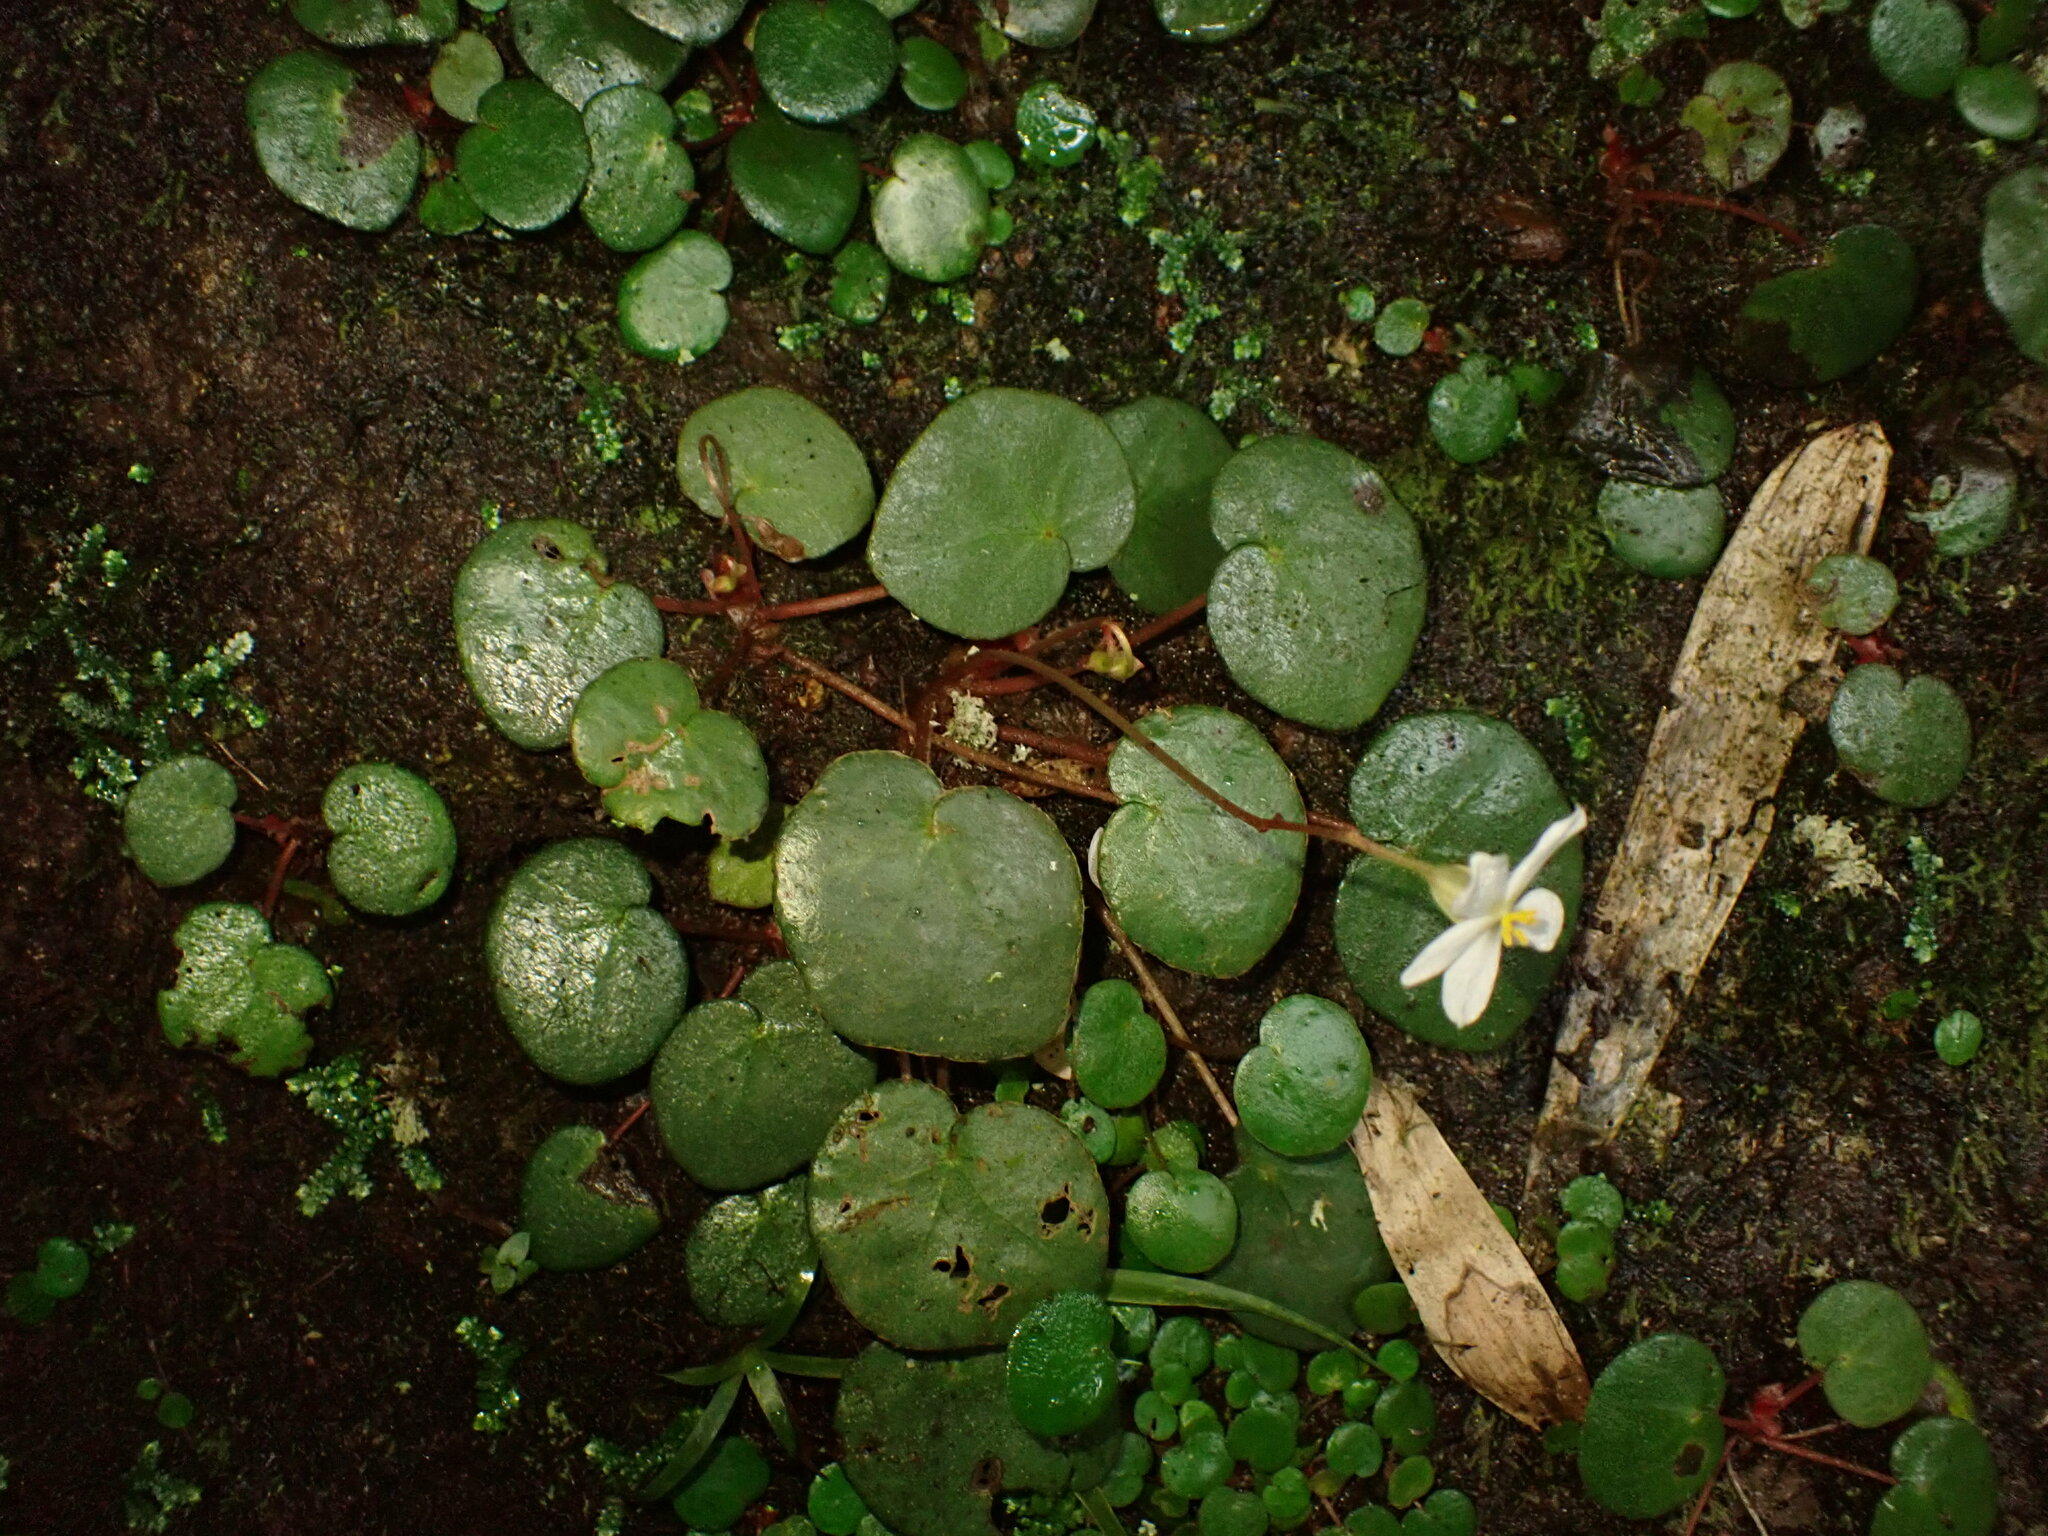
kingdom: Plantae
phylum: Tracheophyta
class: Magnoliopsida
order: Cucurbitales
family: Begoniaceae
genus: Begonia
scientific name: Begonia itatiaiensis
